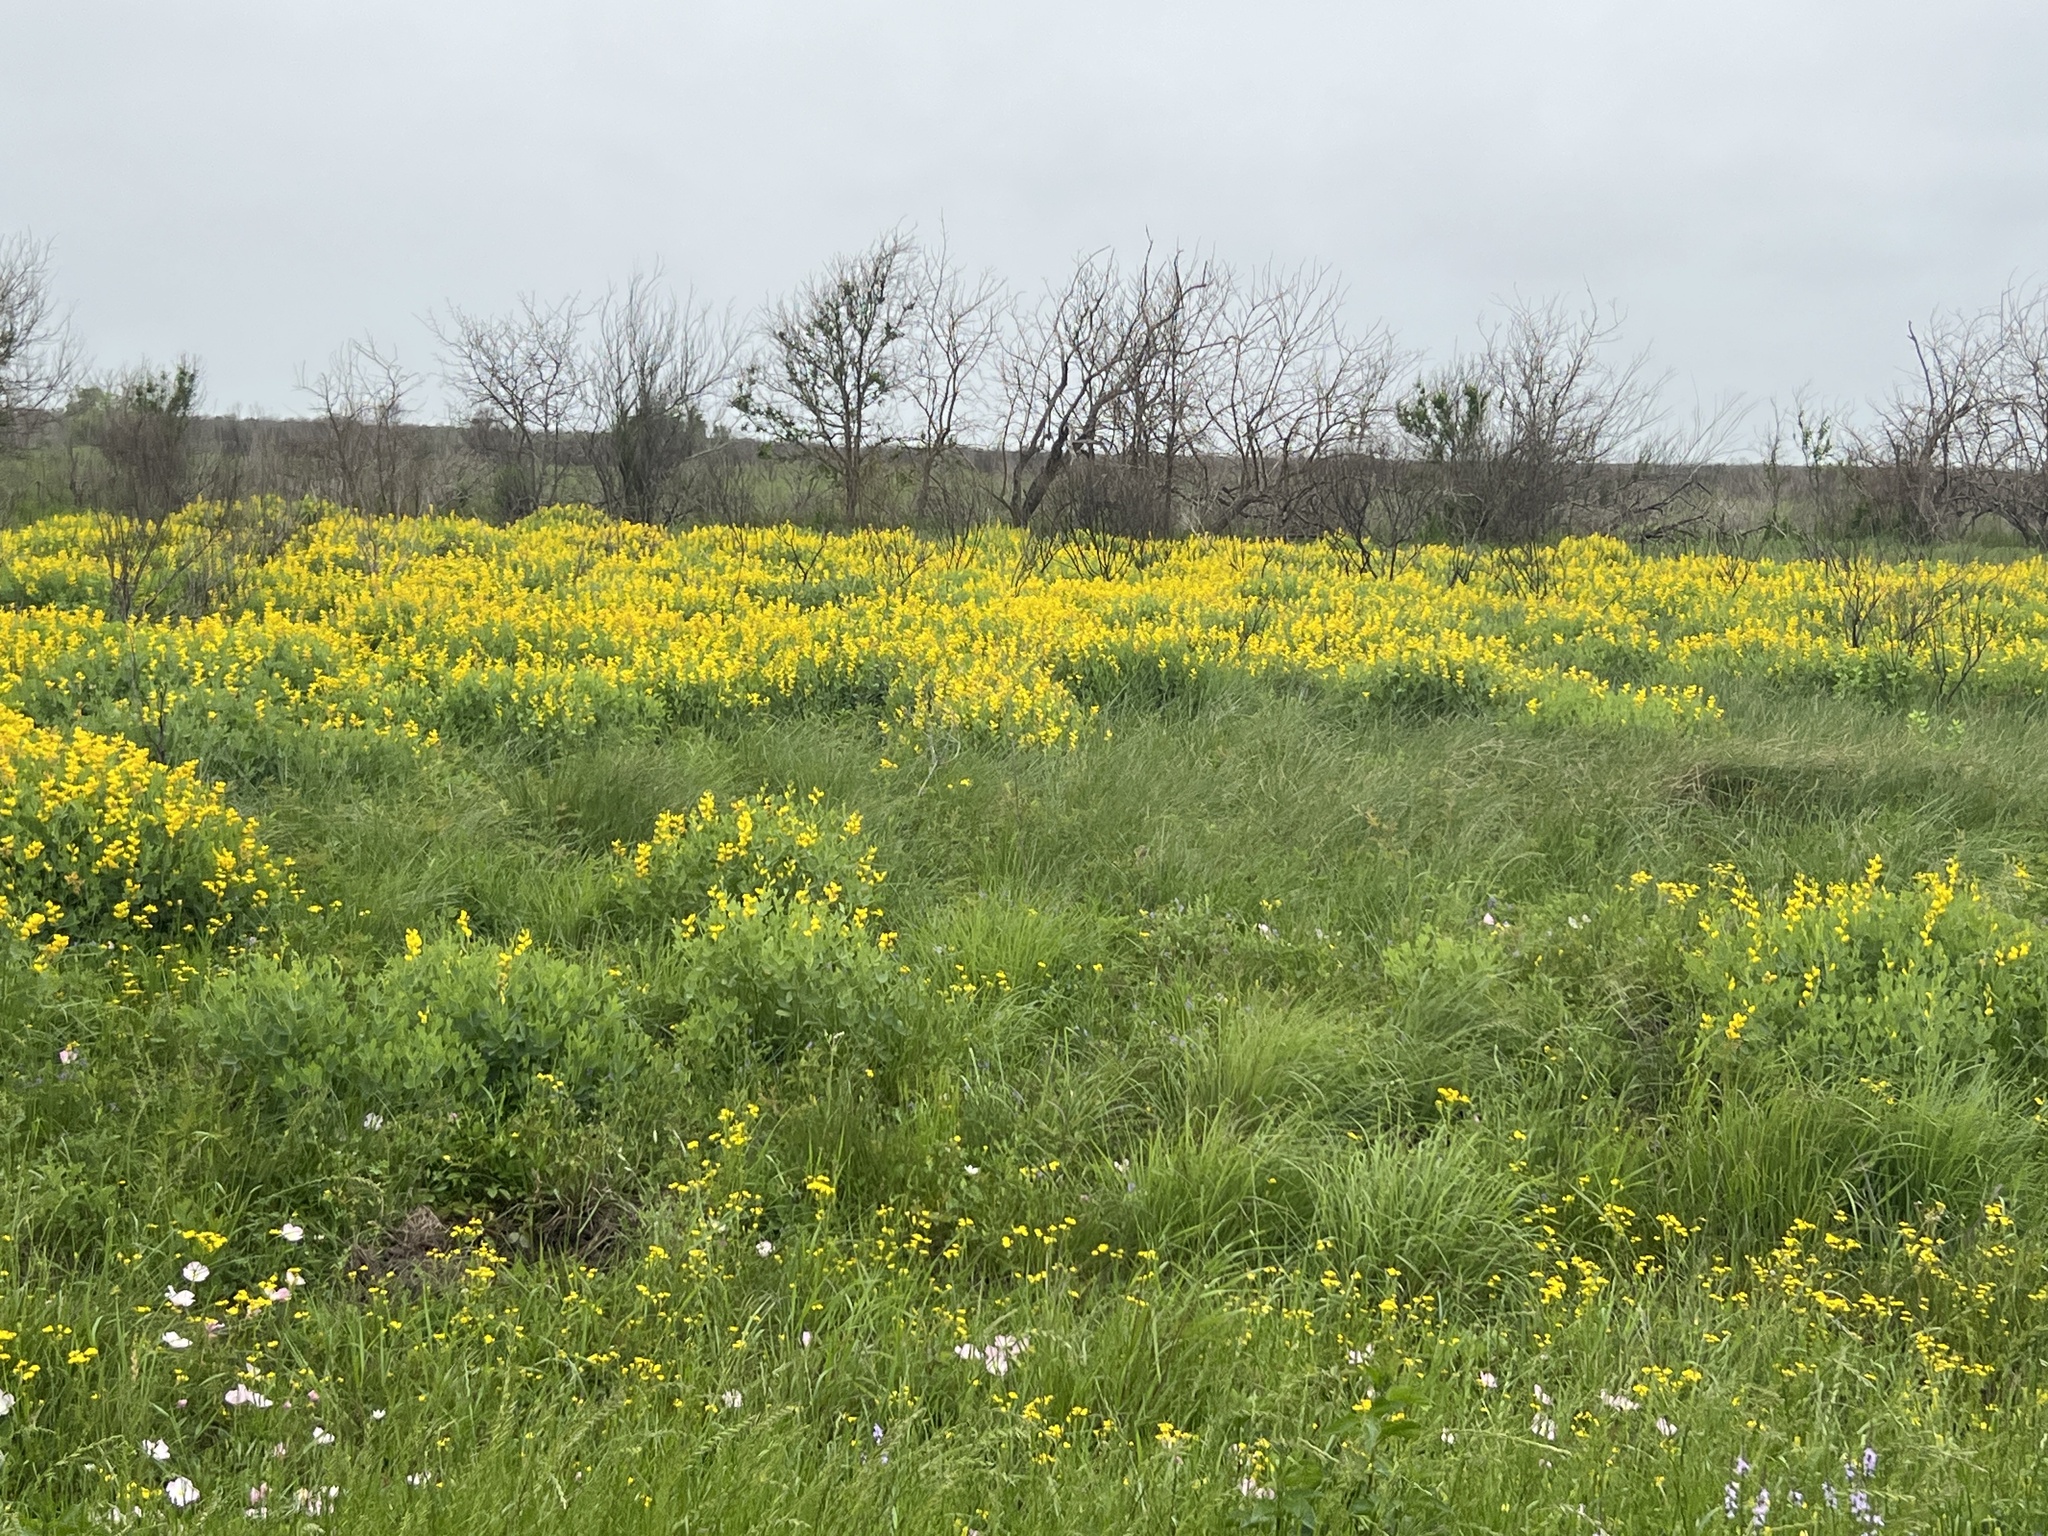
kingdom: Plantae
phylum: Tracheophyta
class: Magnoliopsida
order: Fabales
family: Fabaceae
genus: Baptisia
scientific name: Baptisia sphaerocarpa
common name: Round wild indigo
